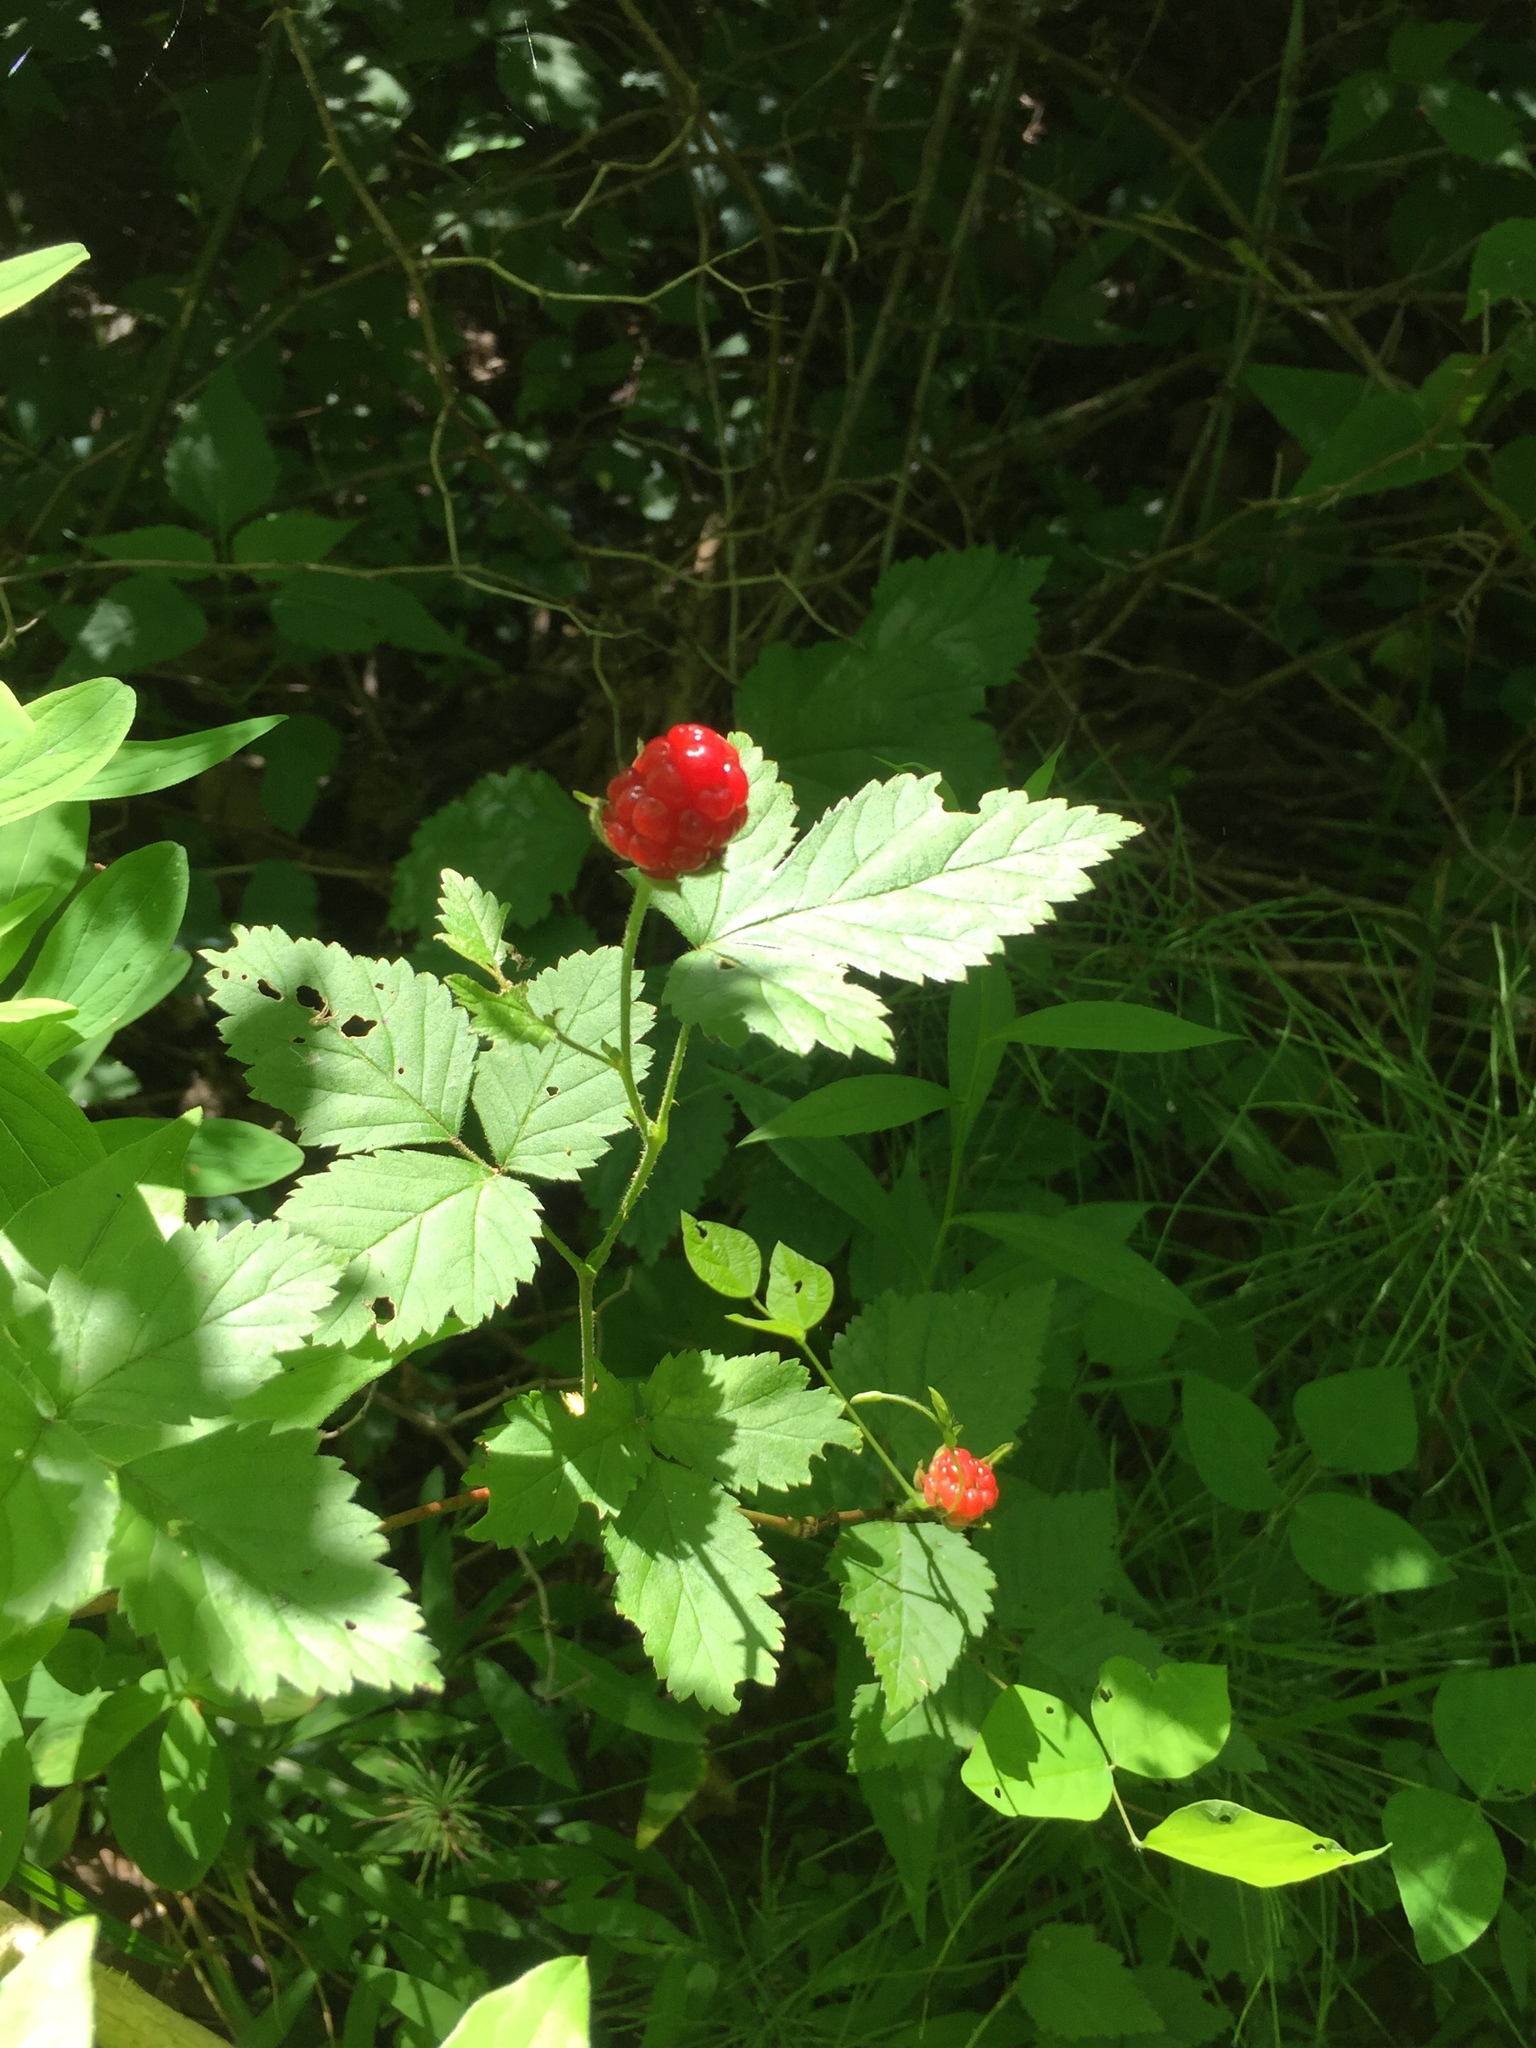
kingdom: Plantae
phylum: Tracheophyta
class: Magnoliopsida
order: Rosales
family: Rosaceae
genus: Rubus
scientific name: Rubus occidentalis
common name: Black raspberry
